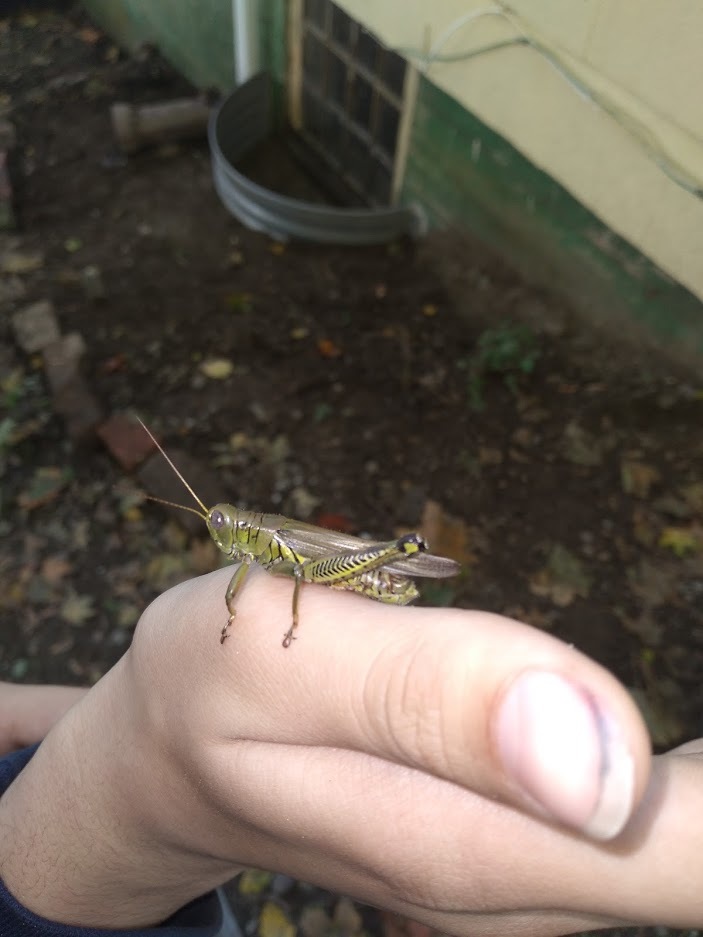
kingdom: Animalia
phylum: Arthropoda
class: Insecta
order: Orthoptera
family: Acrididae
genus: Melanoplus
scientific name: Melanoplus differentialis
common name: Differential grasshopper
